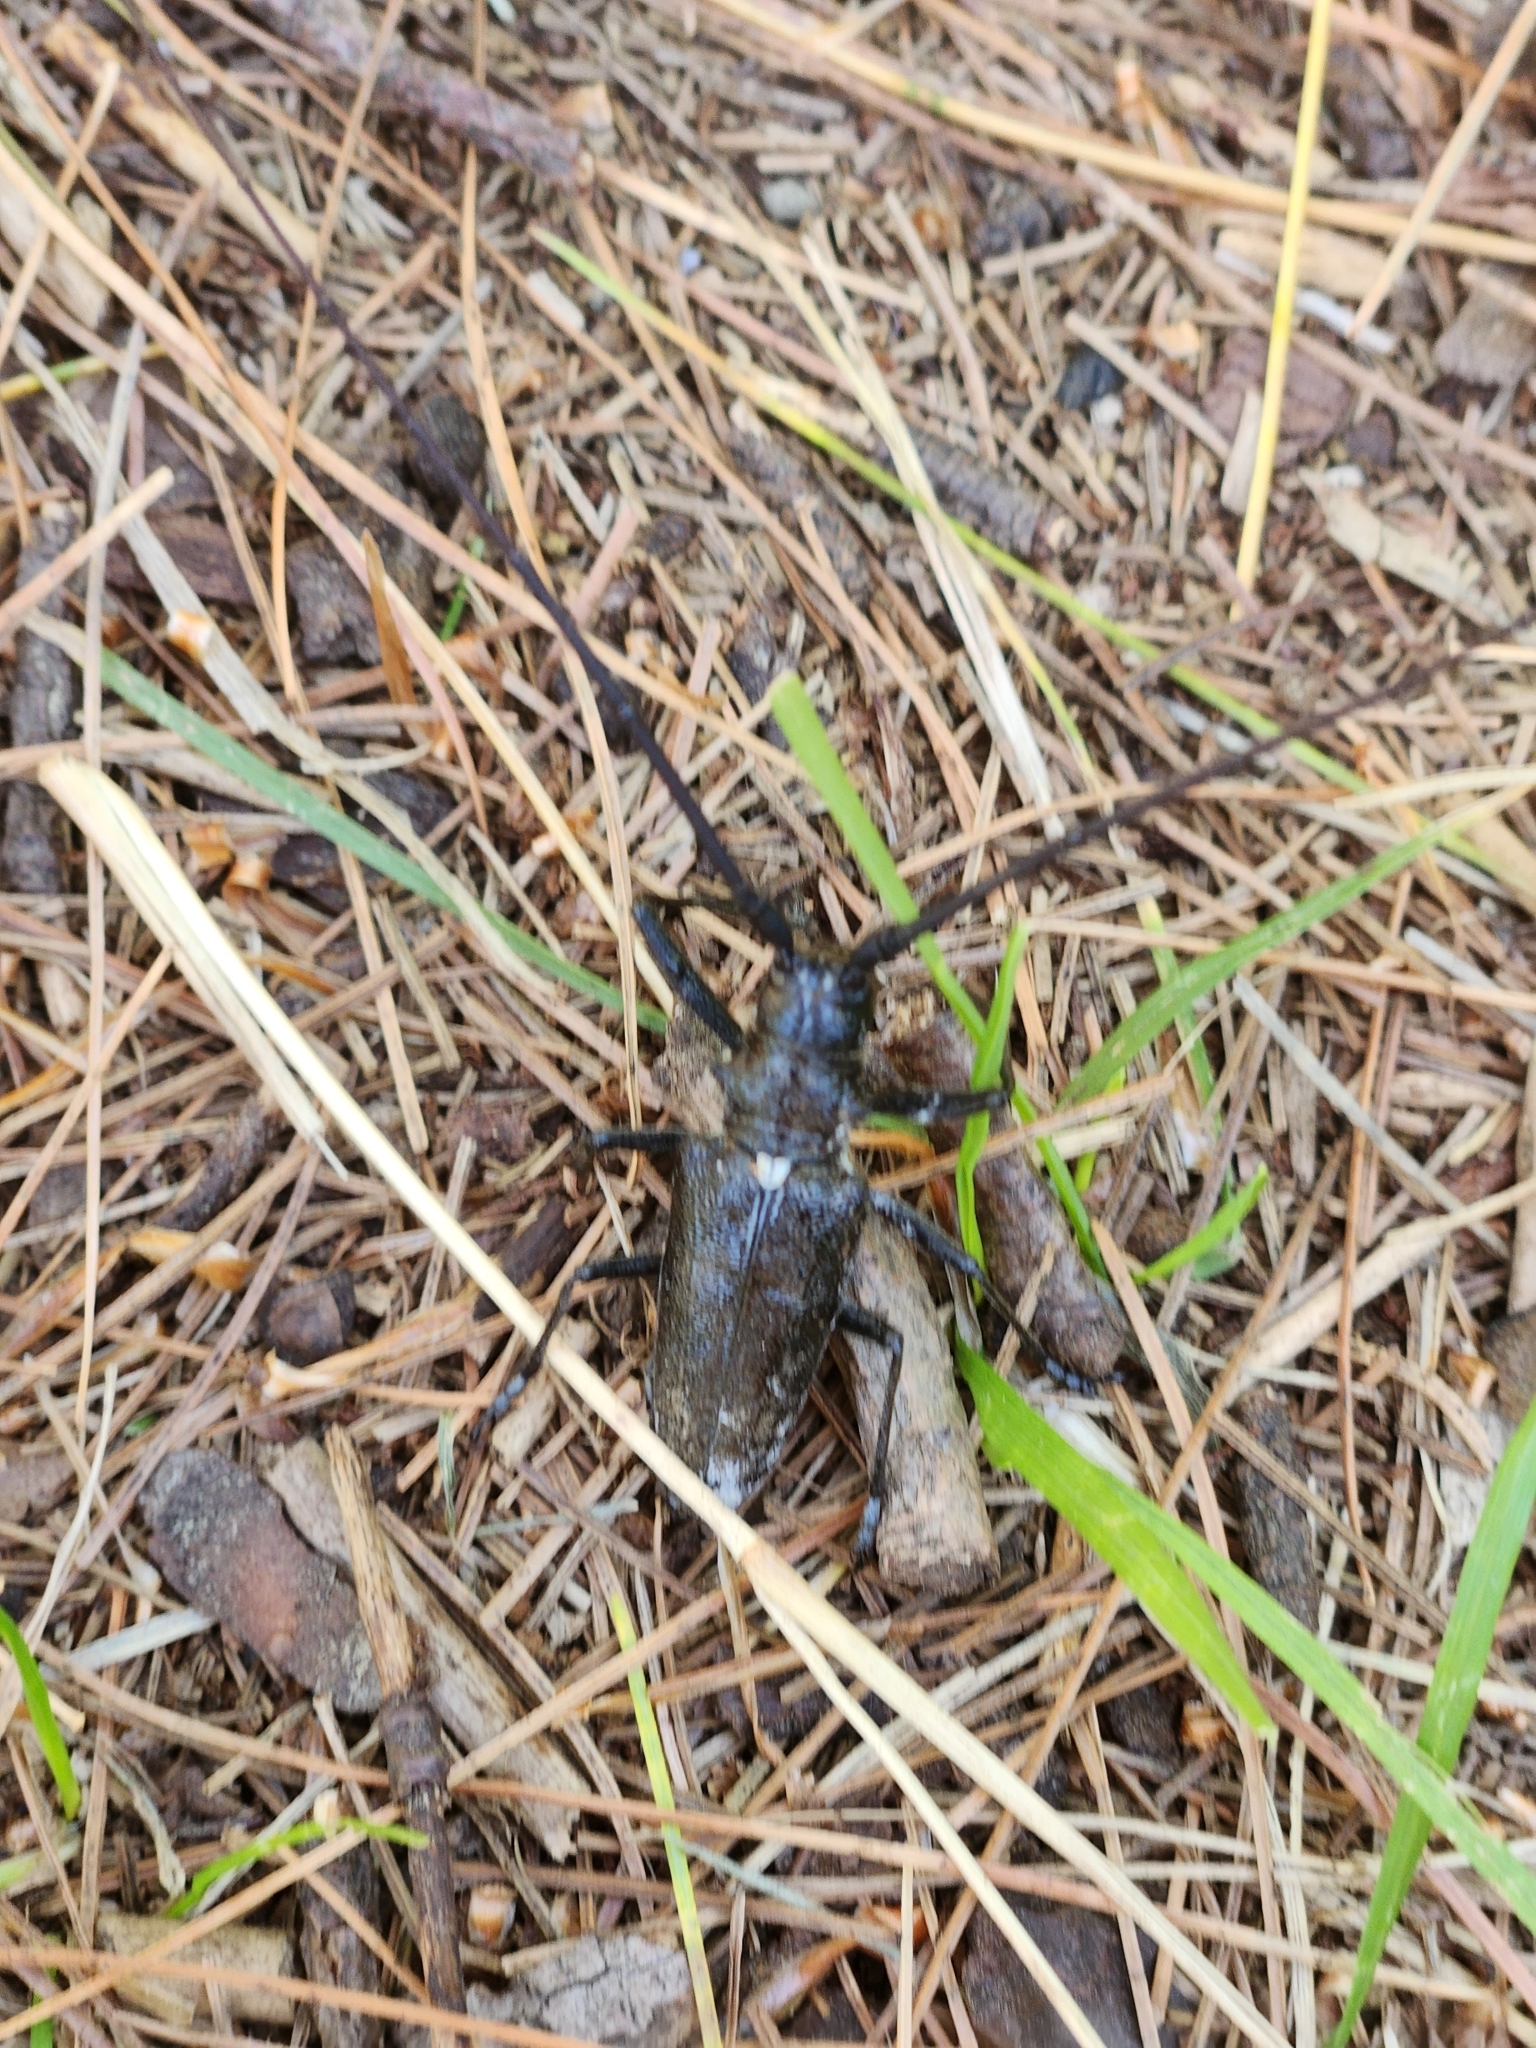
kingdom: Animalia
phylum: Arthropoda
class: Insecta
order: Coleoptera
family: Cerambycidae
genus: Monochamus
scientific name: Monochamus scutellatus
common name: White-spotted sawyer beetle
